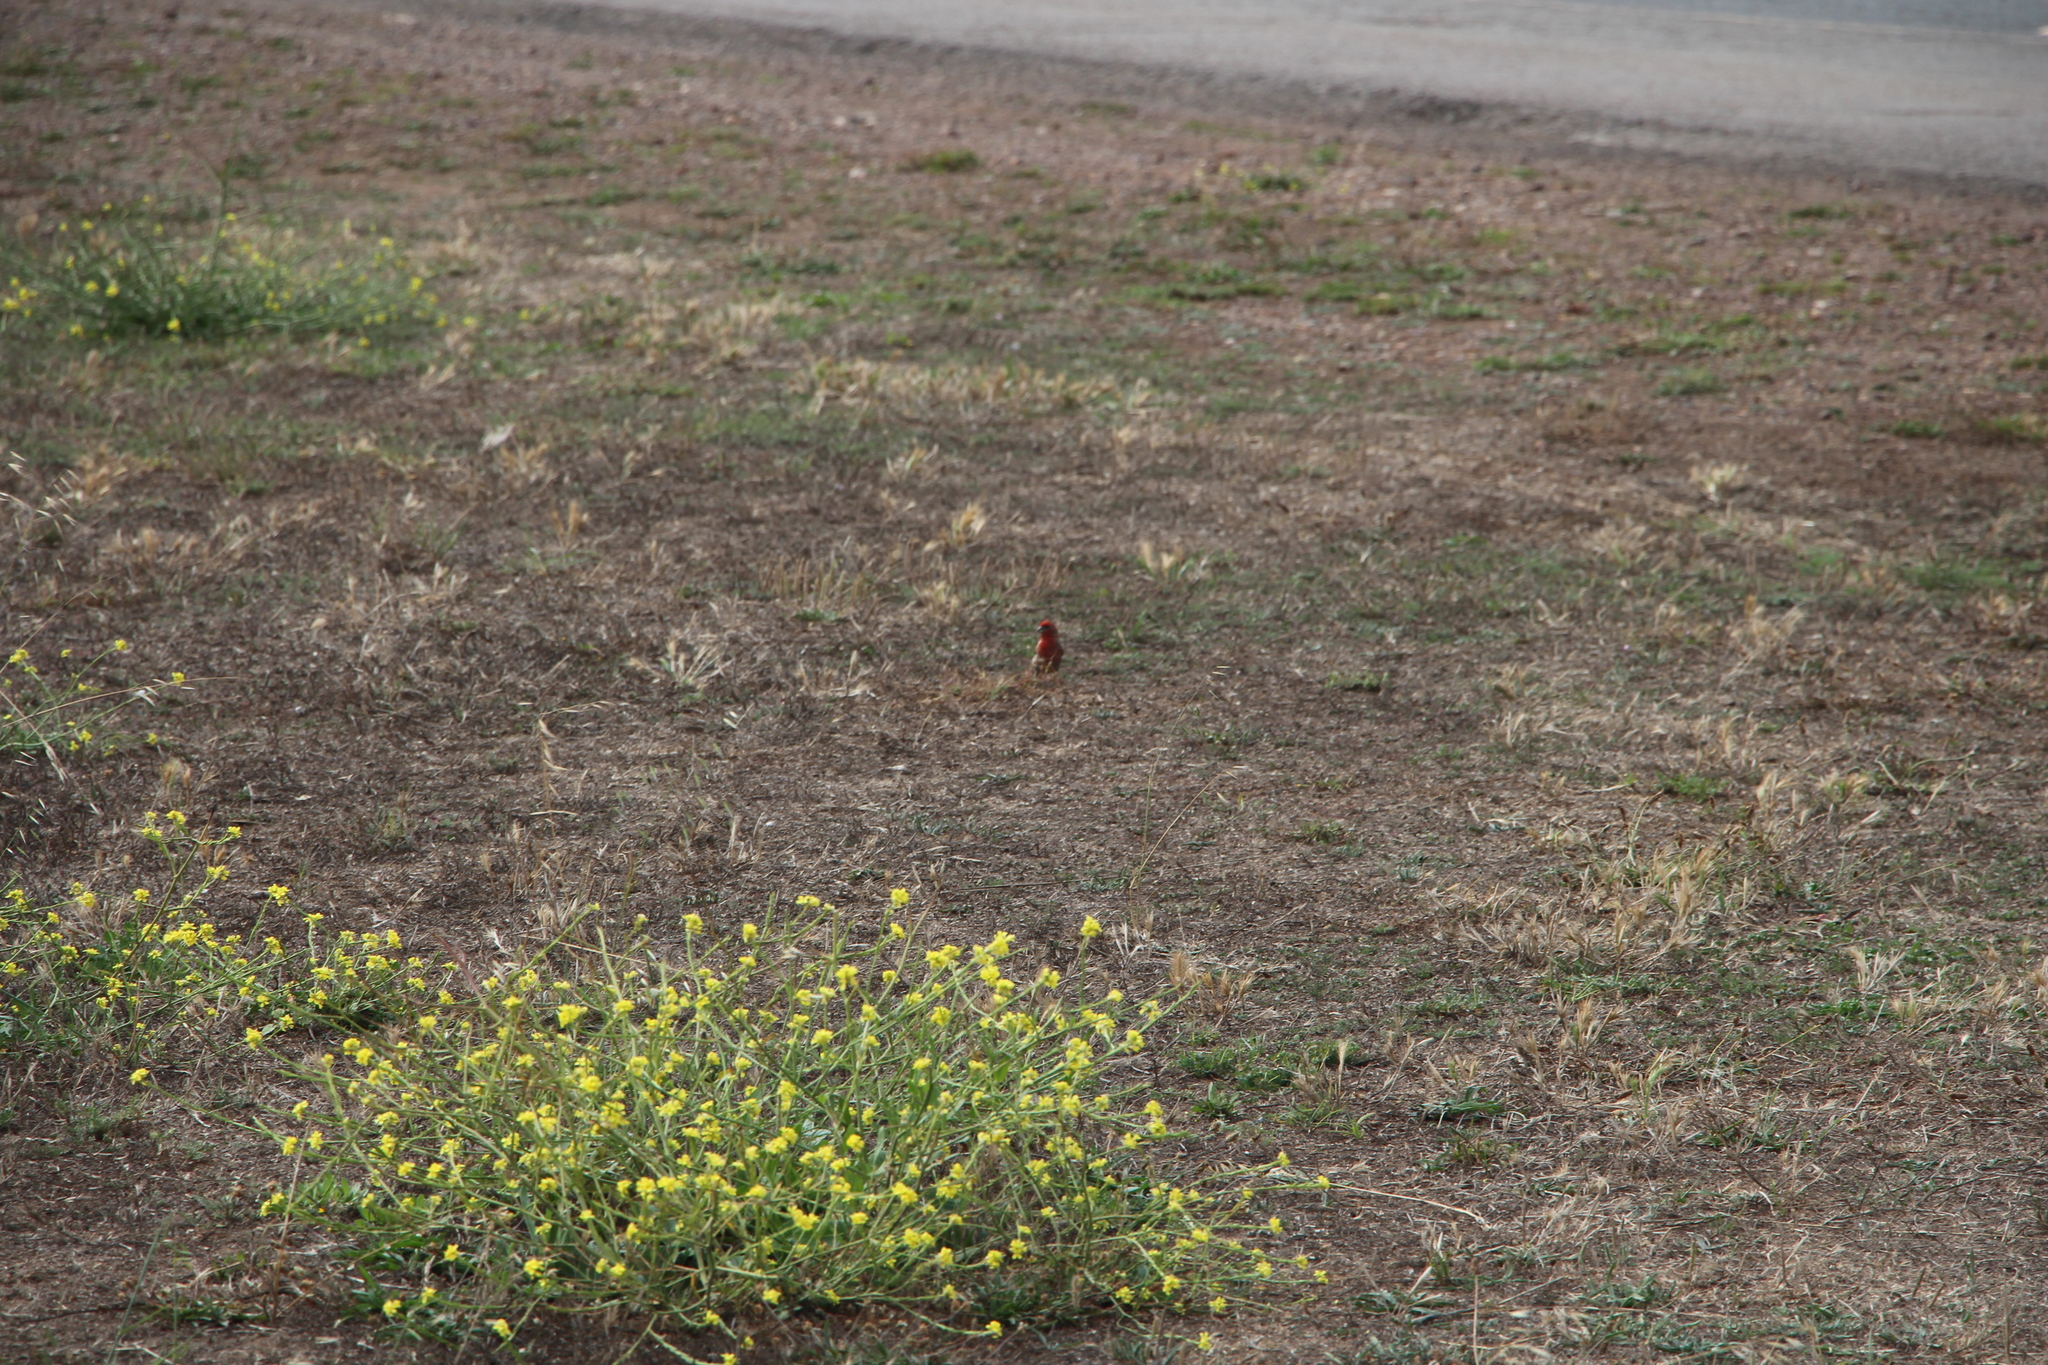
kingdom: Animalia
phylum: Chordata
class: Aves
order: Passeriformes
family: Fringillidae
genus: Haemorhous
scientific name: Haemorhous mexicanus
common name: House finch
